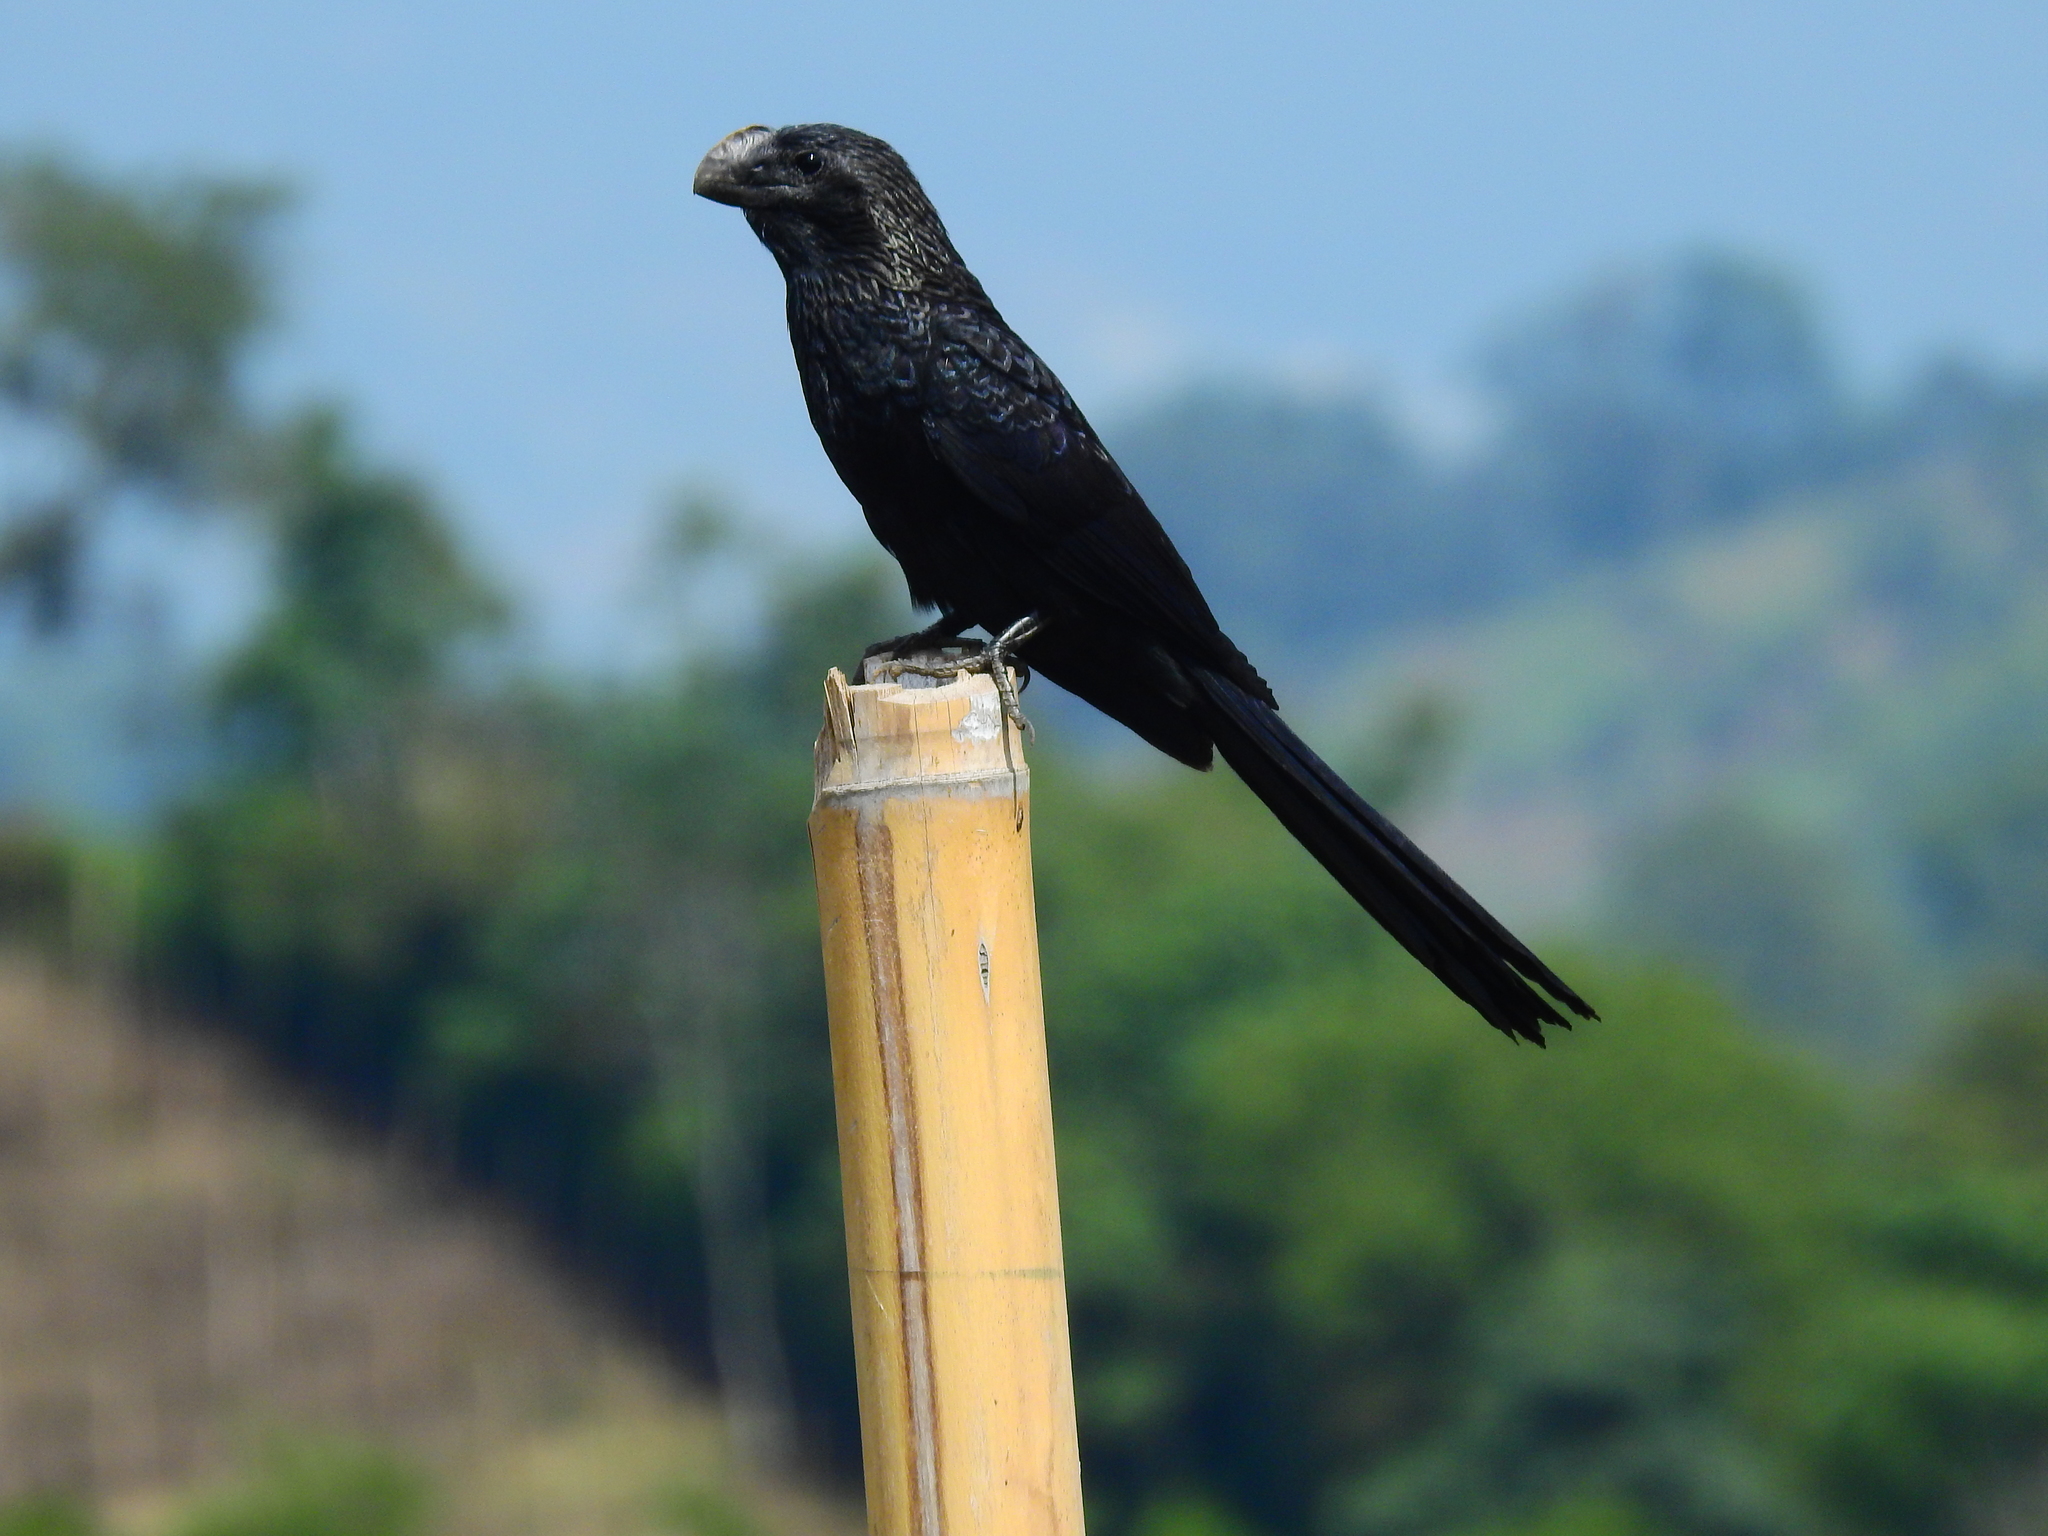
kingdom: Animalia
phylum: Chordata
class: Aves
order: Cuculiformes
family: Cuculidae
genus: Crotophaga
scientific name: Crotophaga ani
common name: Smooth-billed ani
